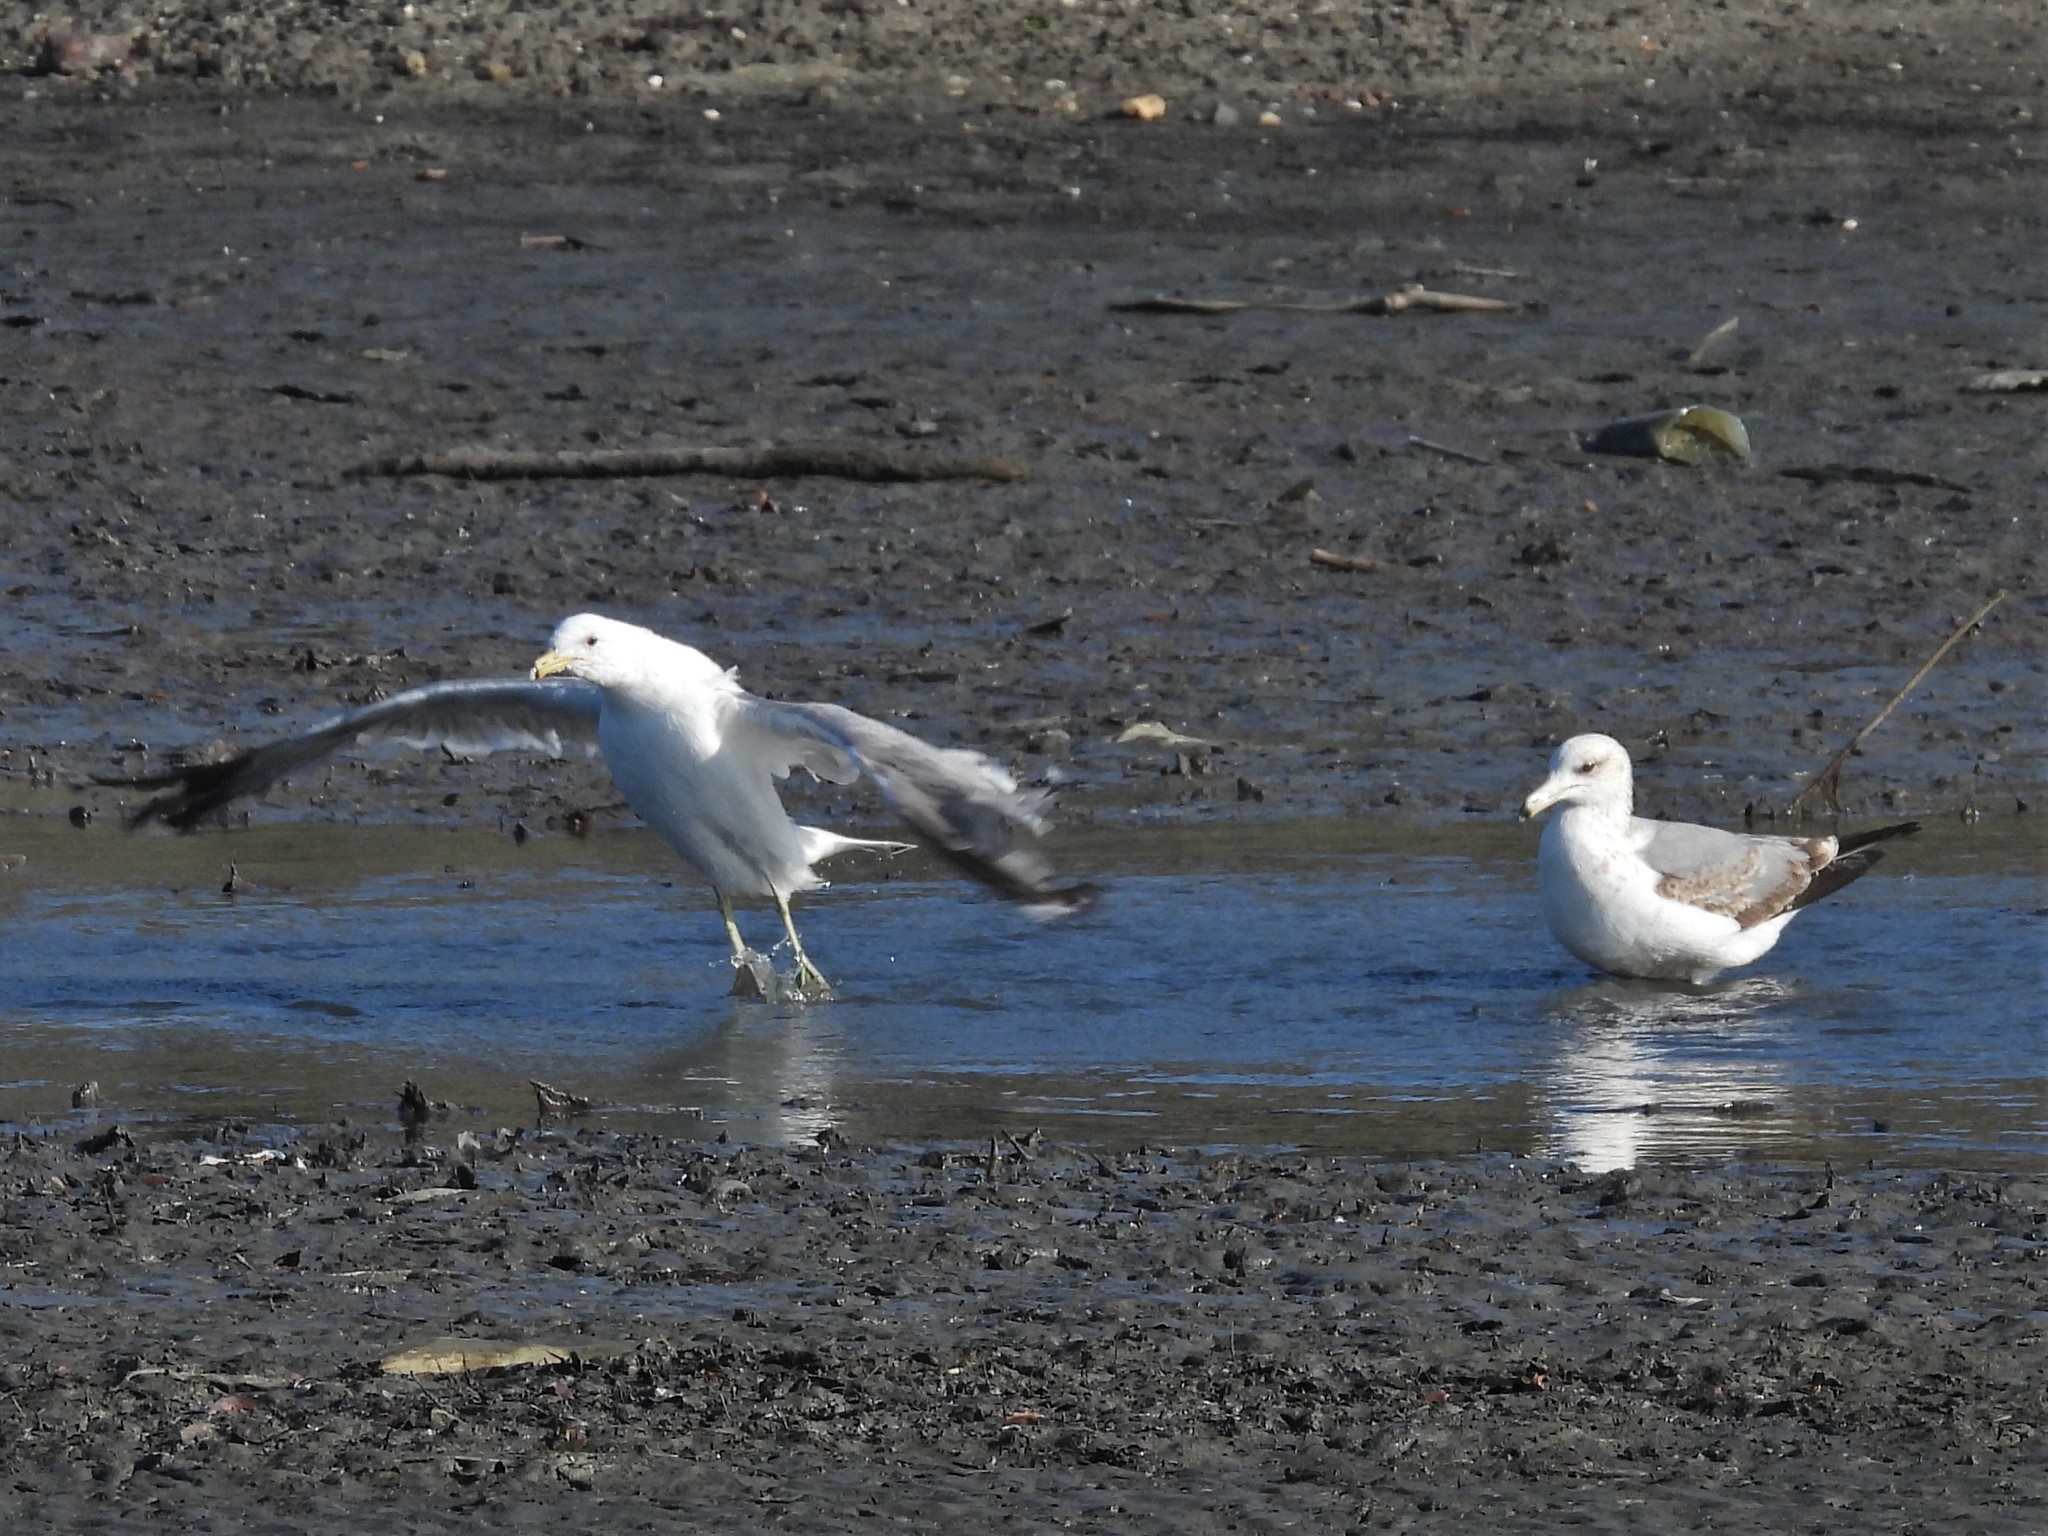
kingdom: Animalia
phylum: Chordata
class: Aves
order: Charadriiformes
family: Laridae
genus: Larus
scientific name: Larus californicus
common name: California gull
